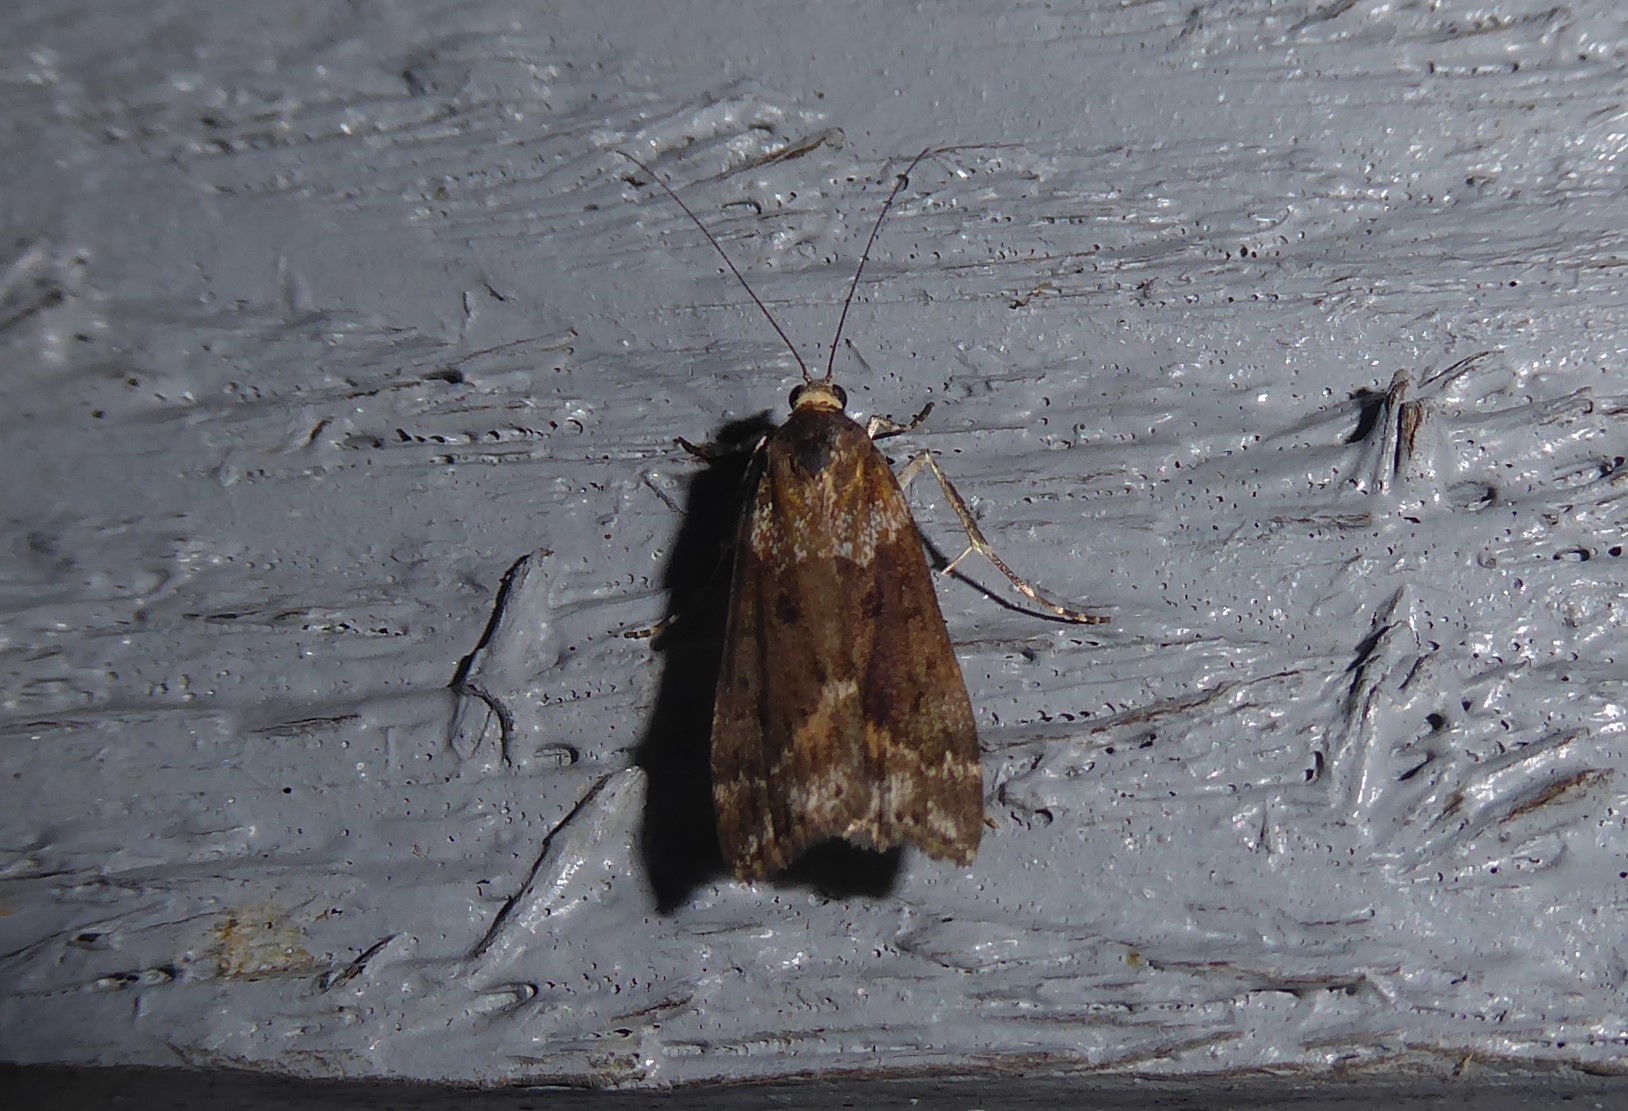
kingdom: Animalia
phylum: Arthropoda
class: Insecta
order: Lepidoptera
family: Crambidae
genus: Eudonia
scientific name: Eudonia submarginalis
